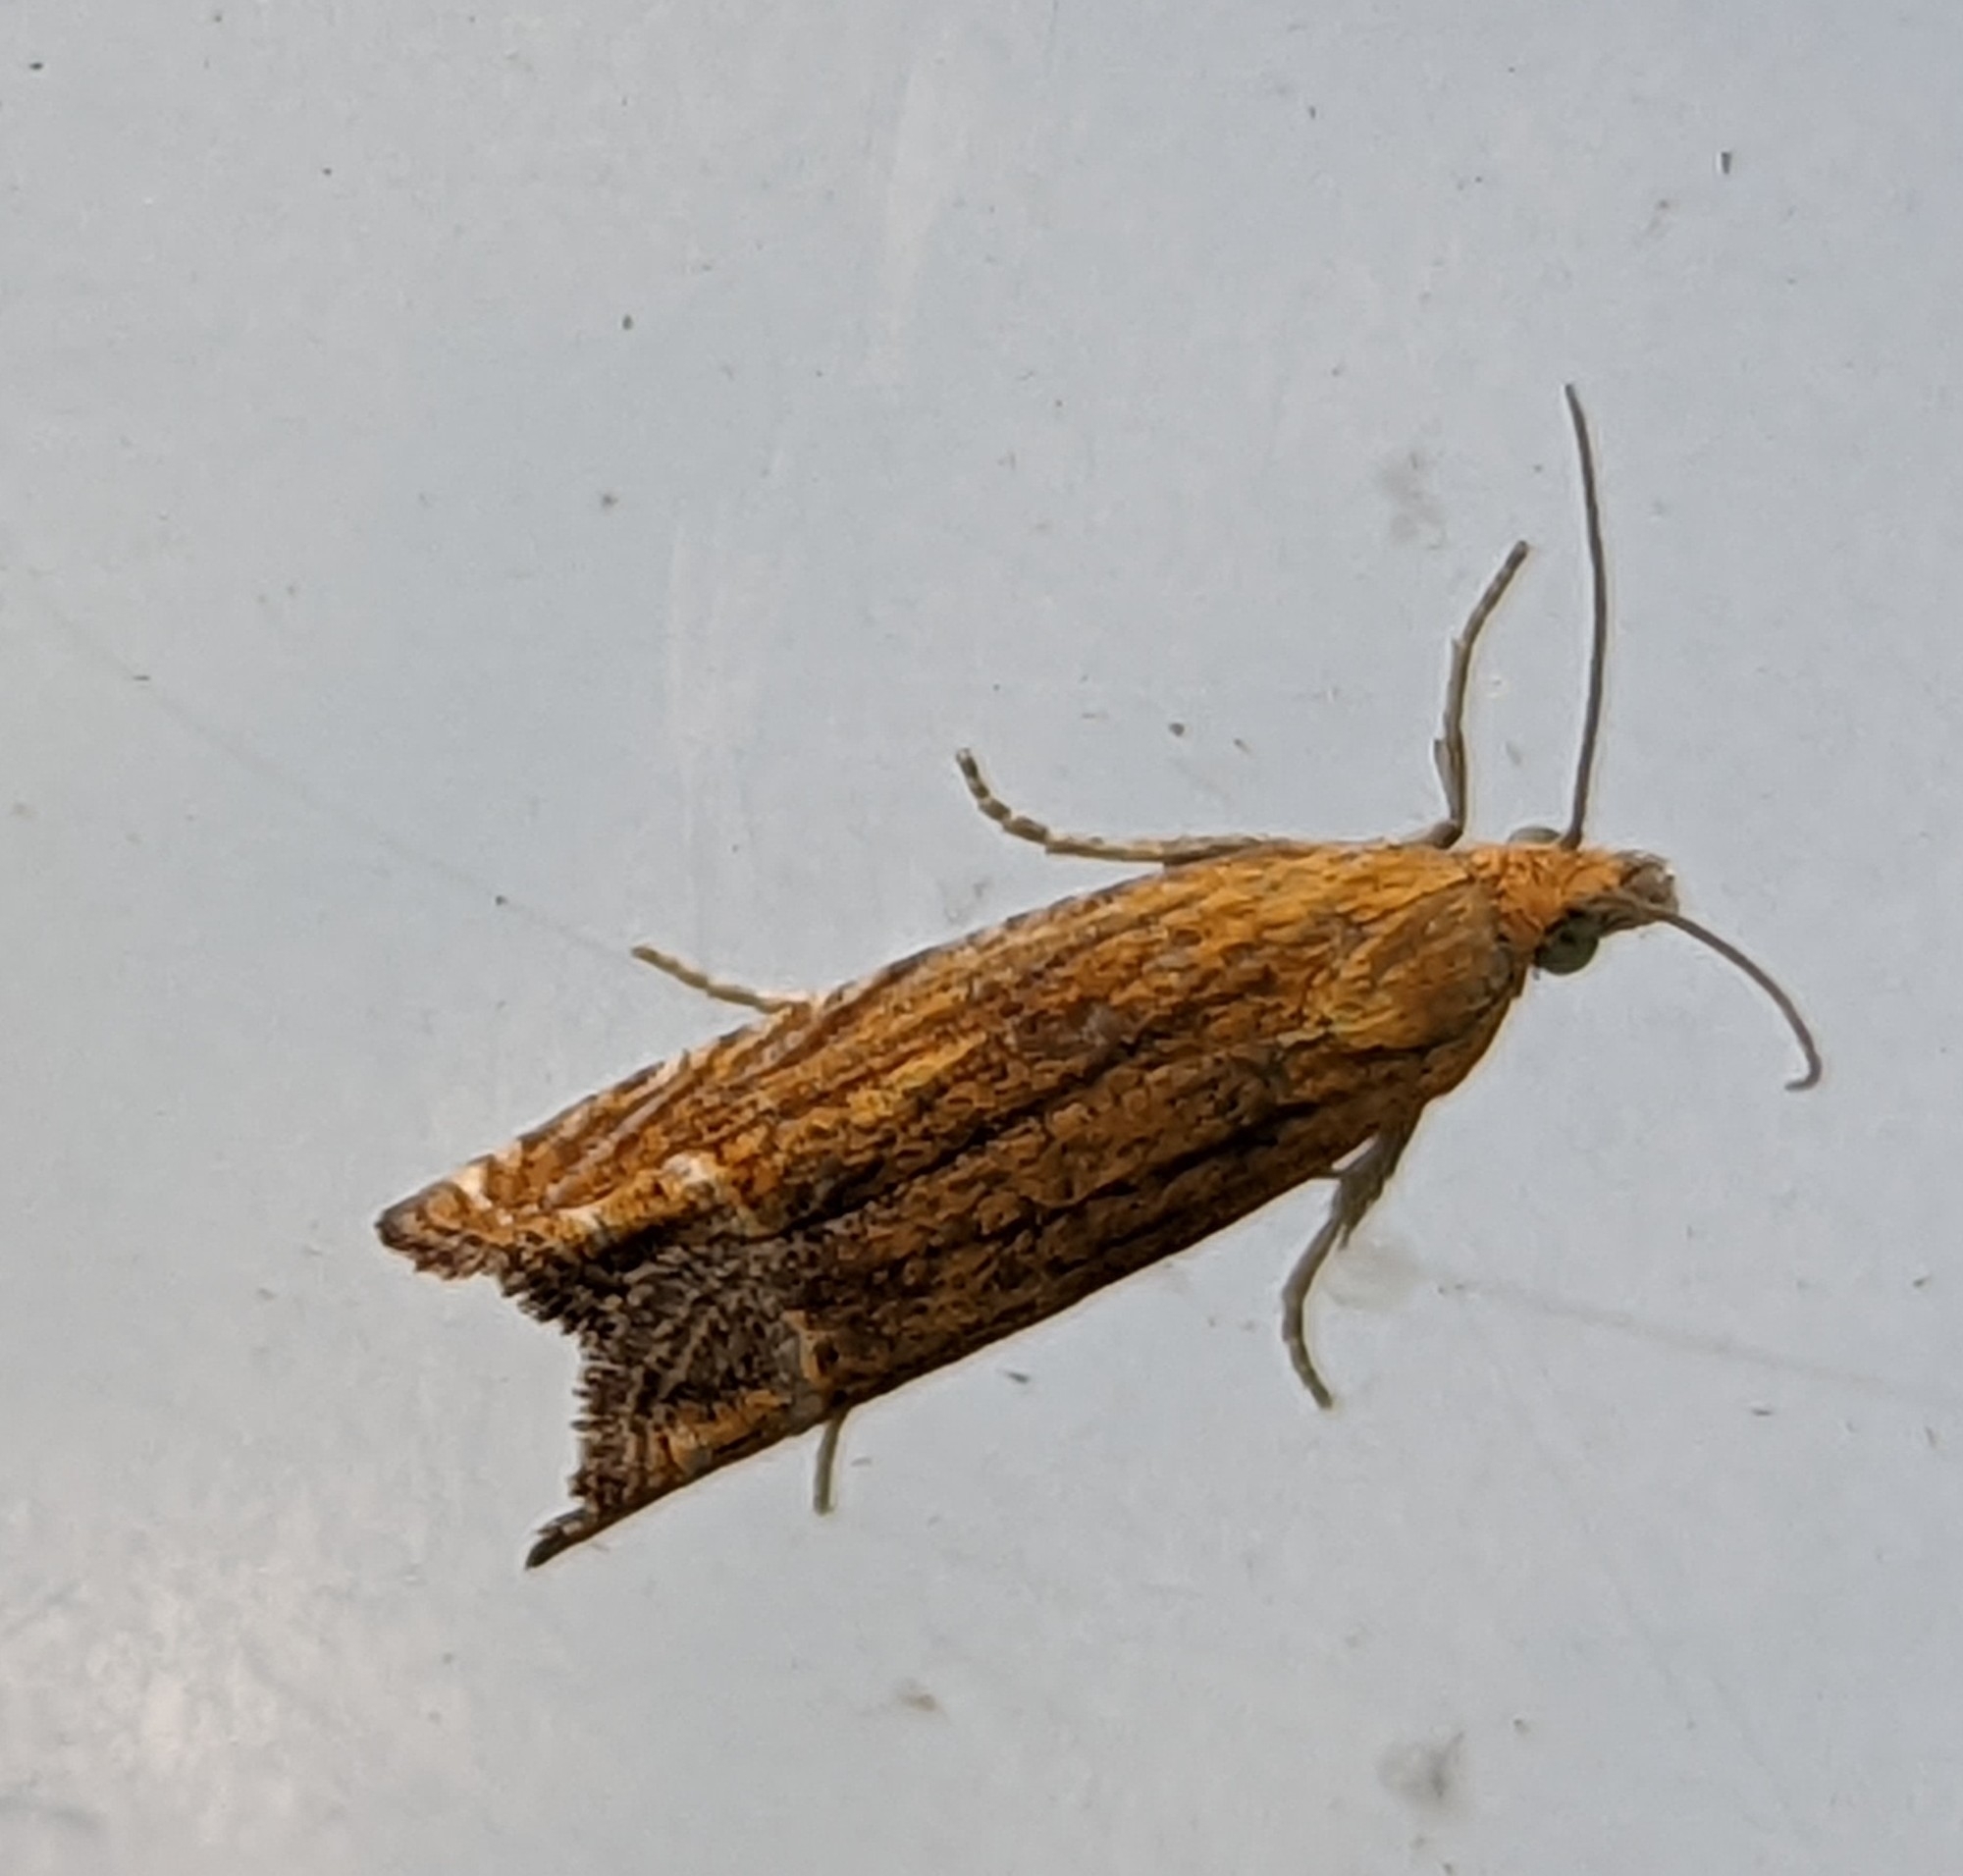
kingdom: Animalia
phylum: Arthropoda
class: Insecta
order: Lepidoptera
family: Tortricidae
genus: Lathronympha
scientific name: Lathronympha strigana
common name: Red piercer
